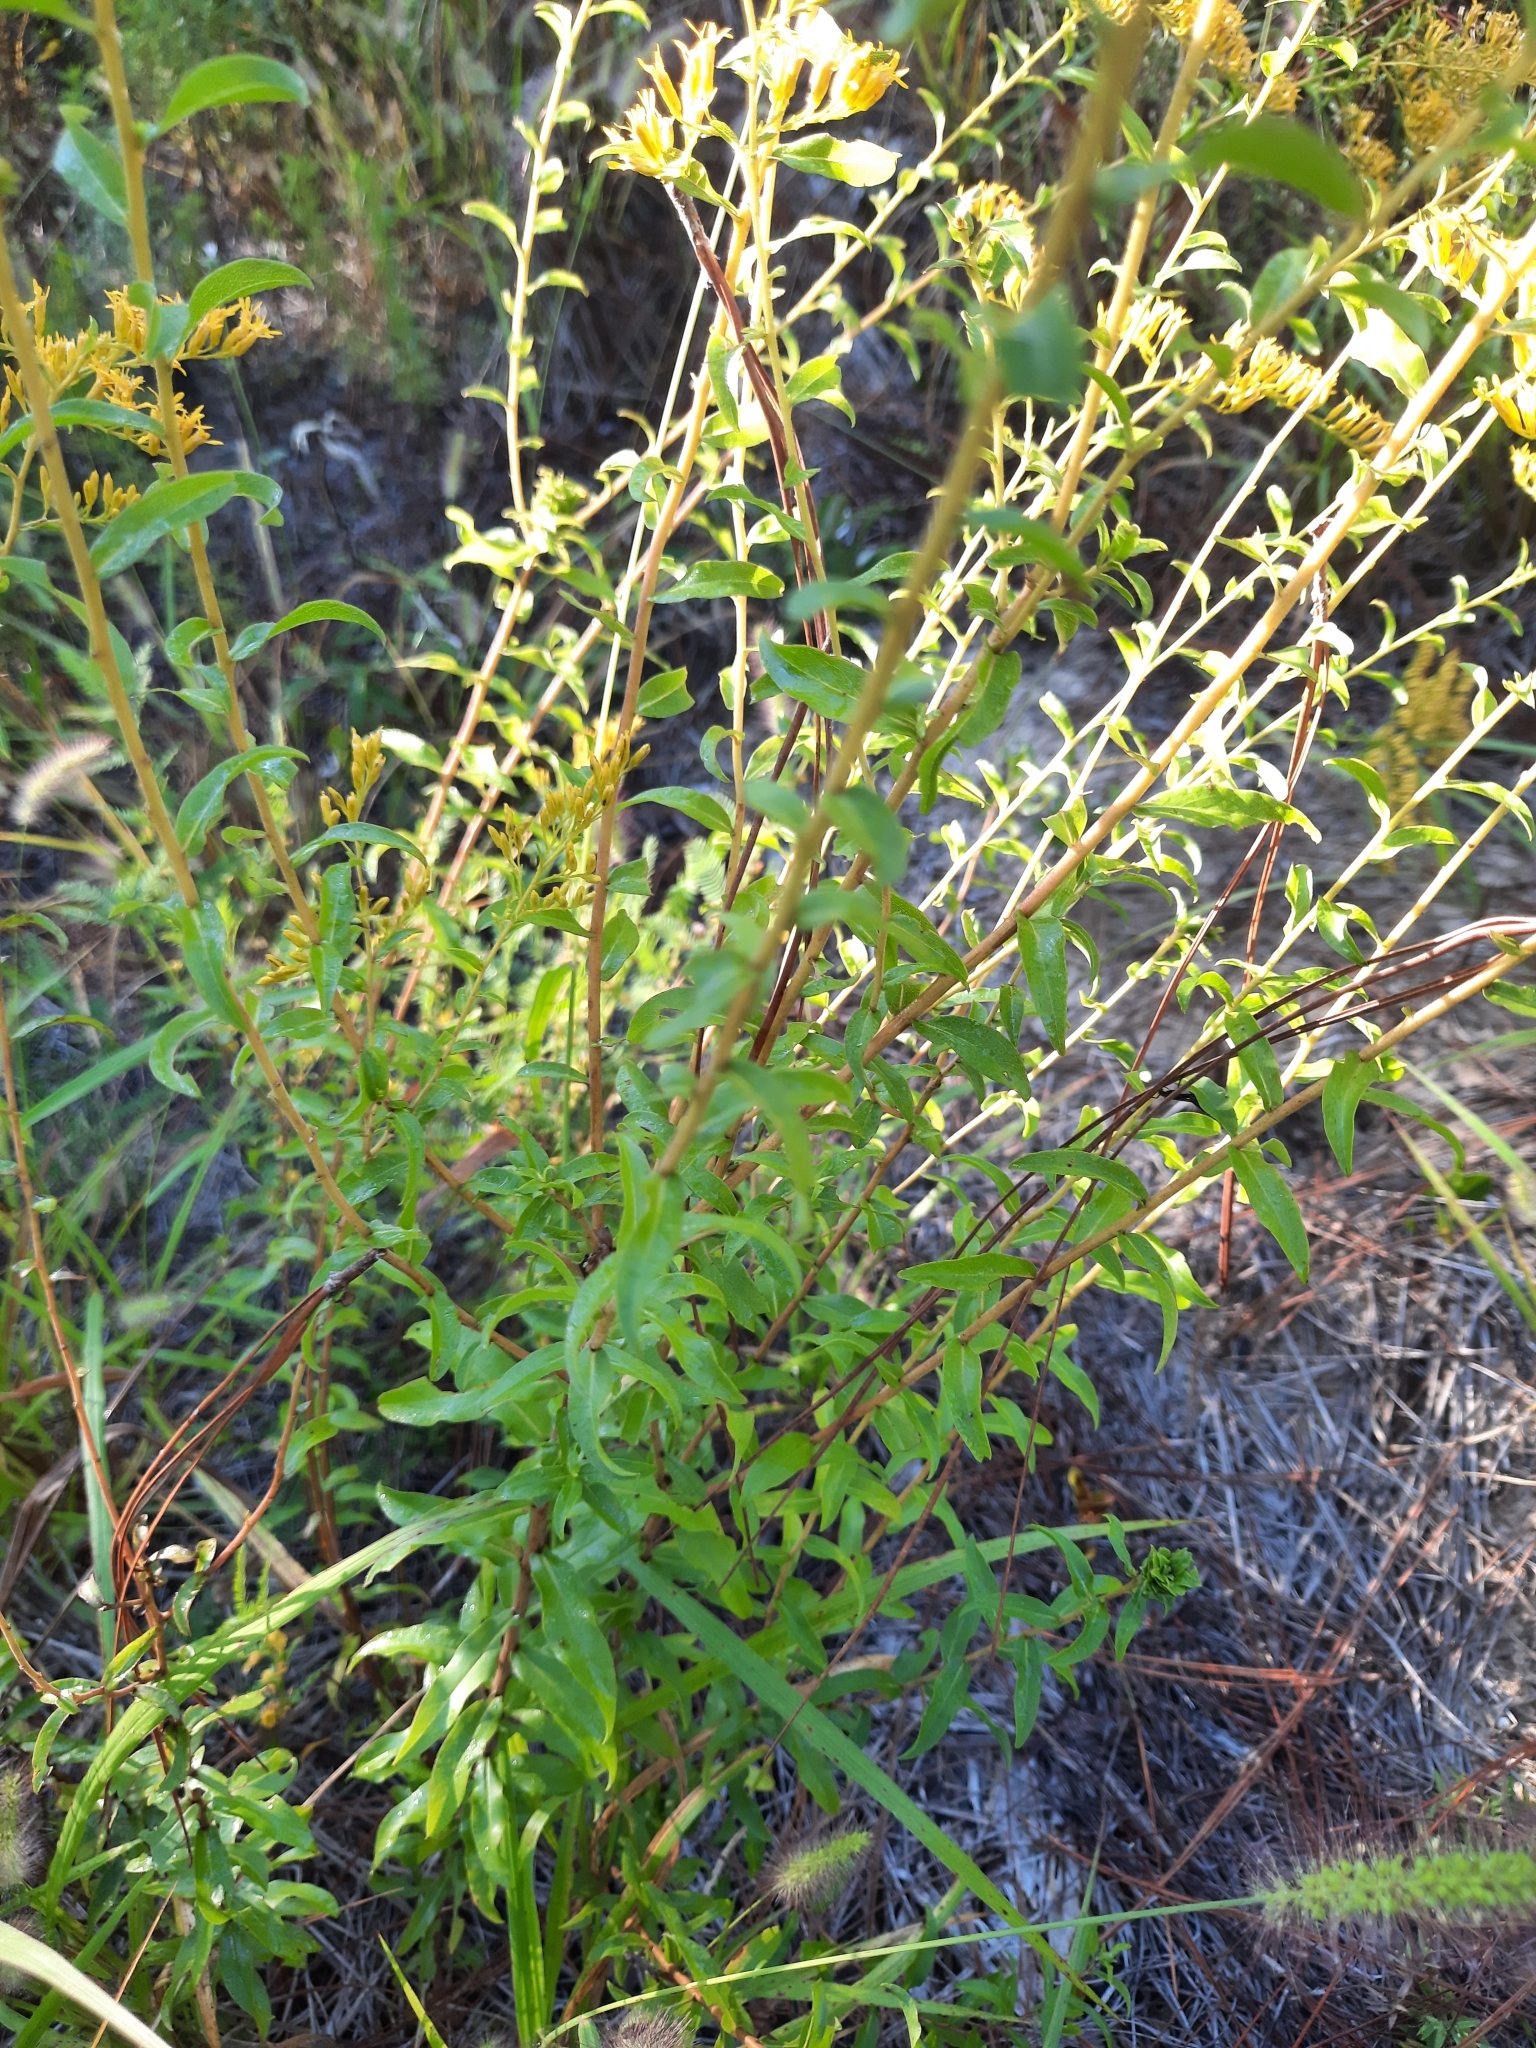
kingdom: Plantae
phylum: Tracheophyta
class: Magnoliopsida
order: Asterales
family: Asteraceae
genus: Solidago
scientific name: Solidago odora
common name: Anise-scented goldenrod
